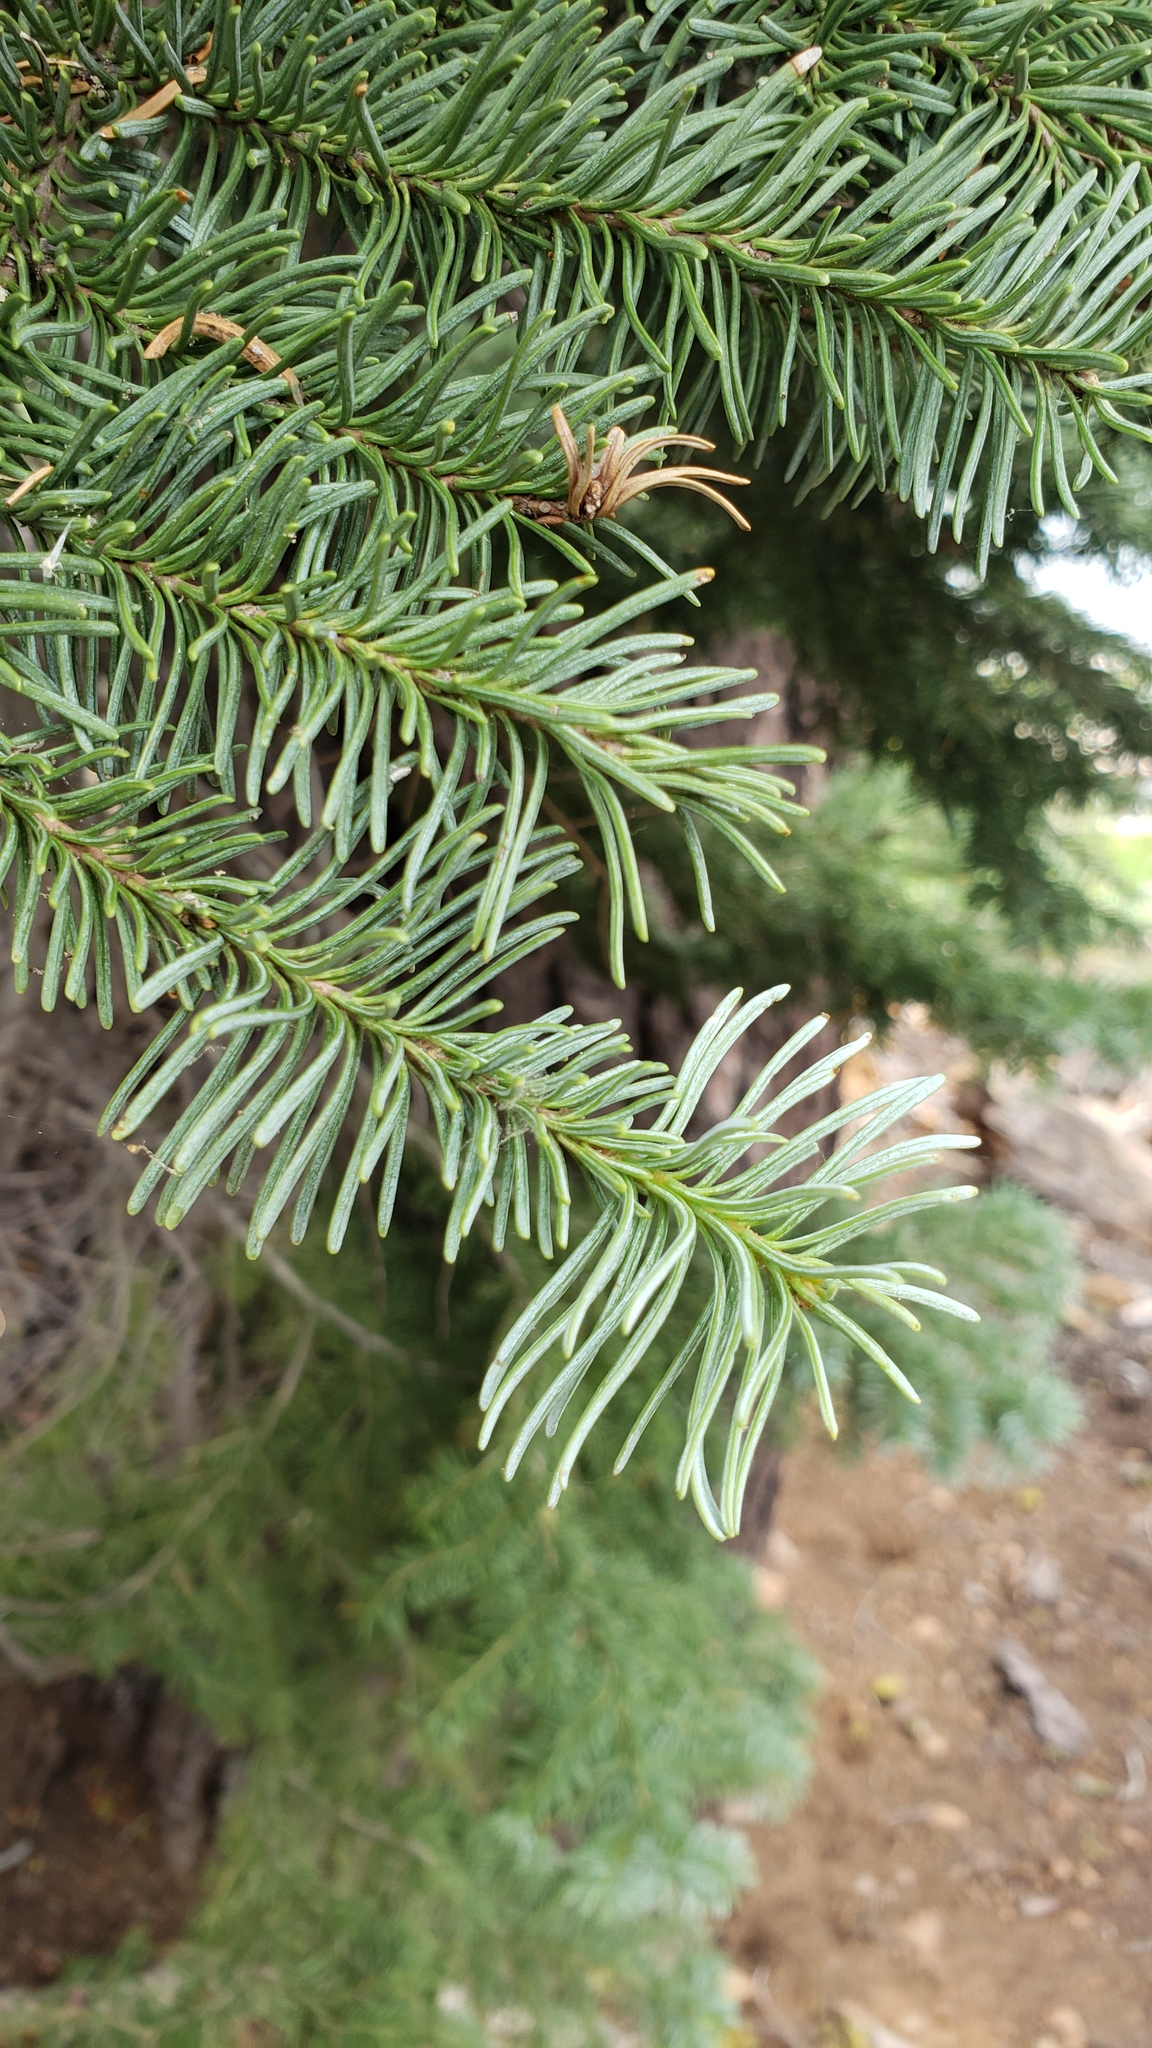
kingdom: Plantae
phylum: Tracheophyta
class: Pinopsida
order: Pinales
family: Pinaceae
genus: Abies
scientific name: Abies magnifica bis
